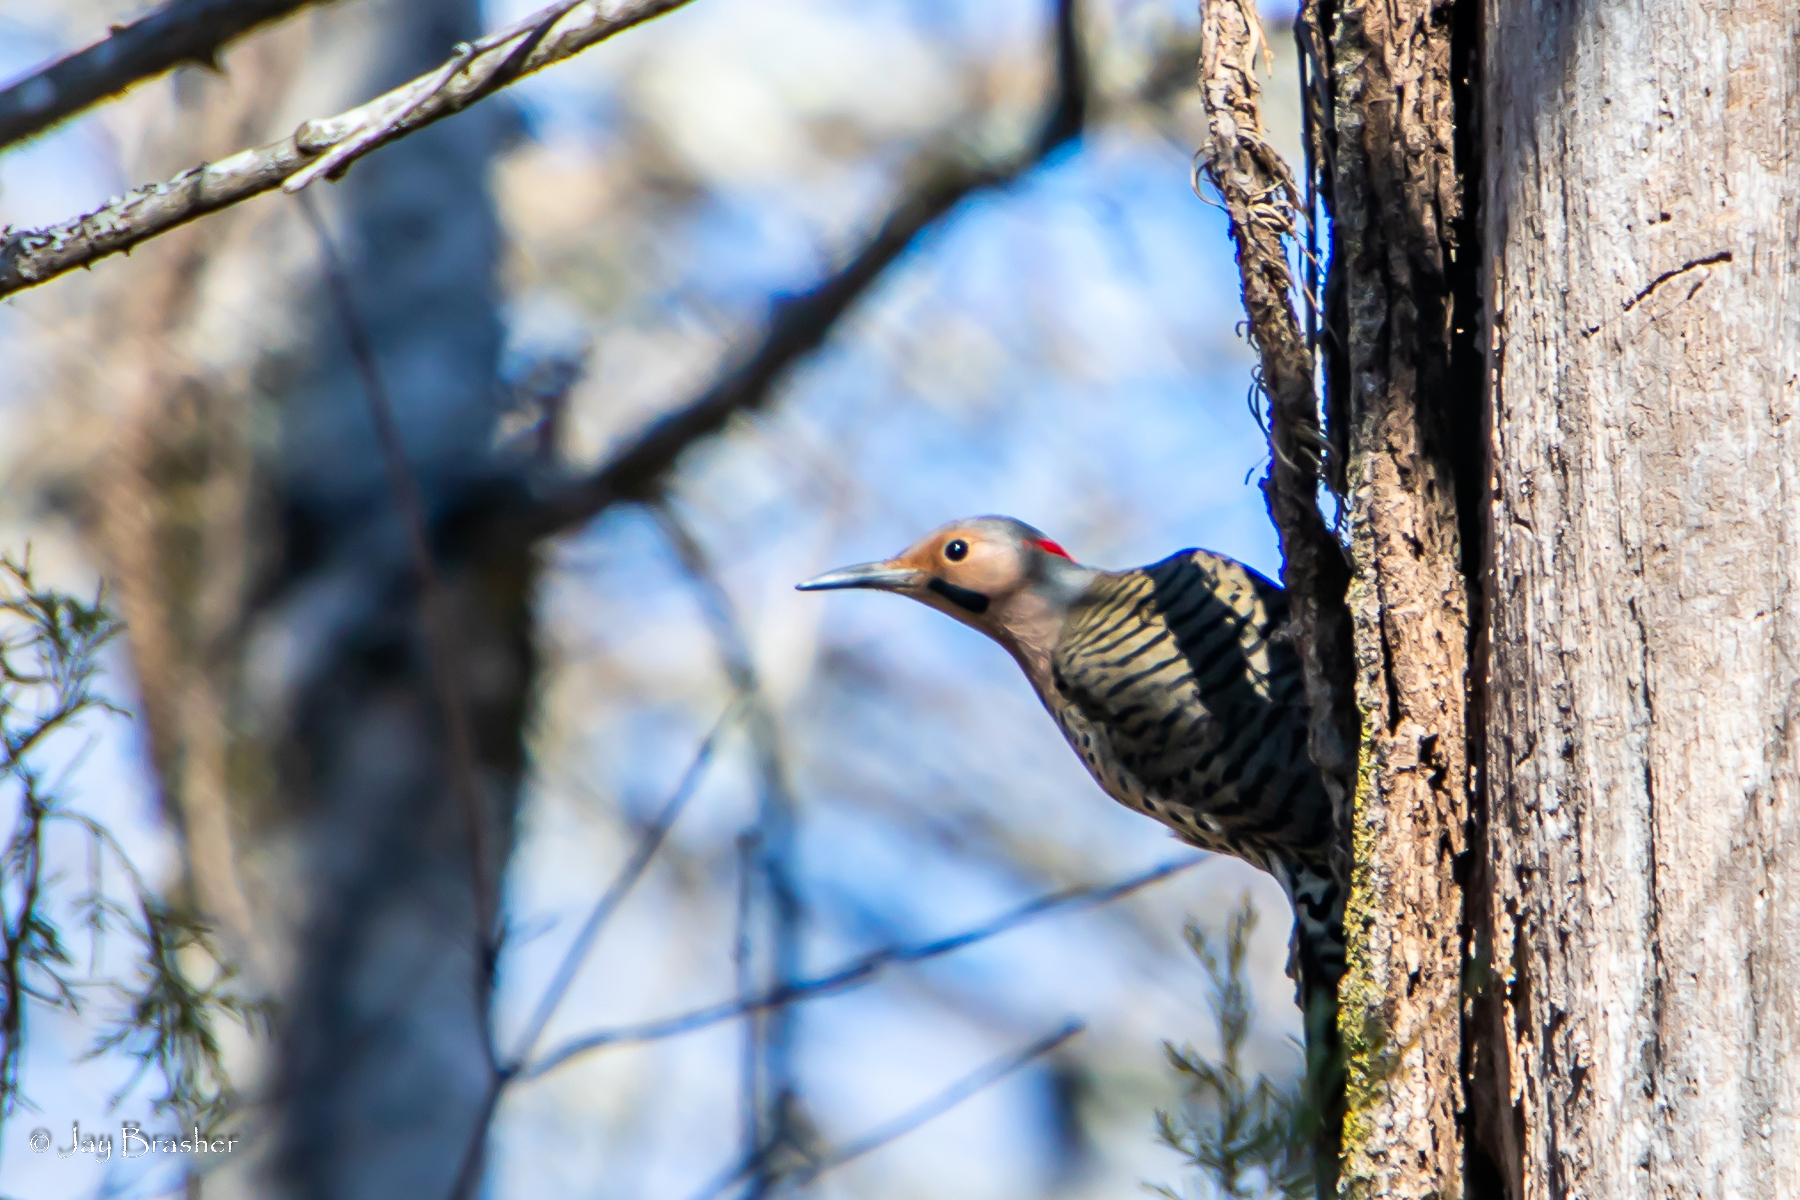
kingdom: Animalia
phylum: Chordata
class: Aves
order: Piciformes
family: Picidae
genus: Colaptes
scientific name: Colaptes auratus
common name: Northern flicker
